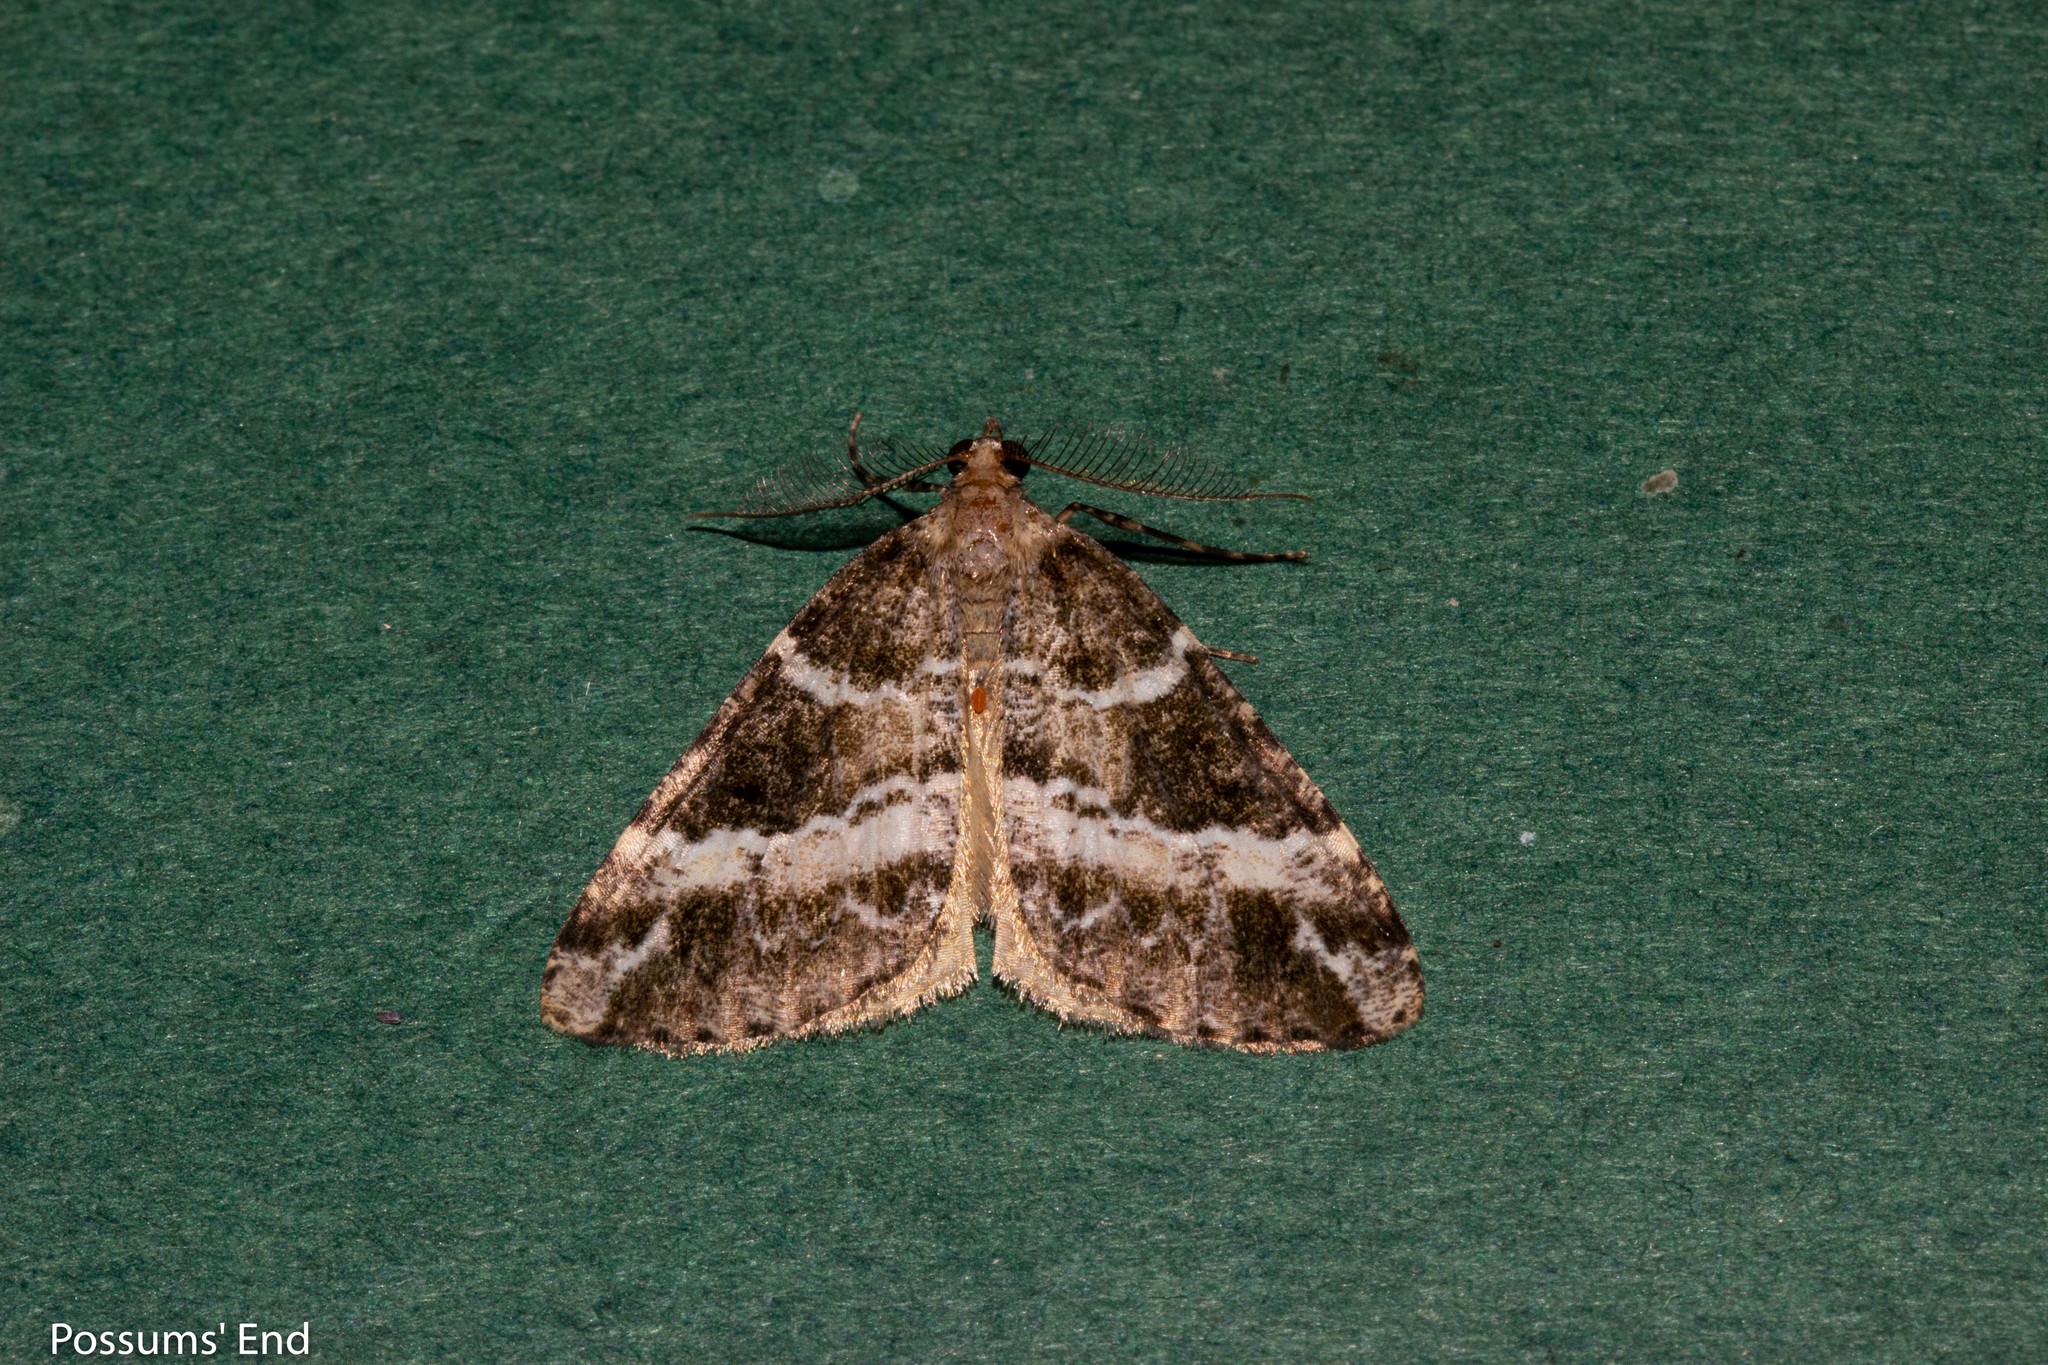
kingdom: Animalia
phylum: Arthropoda
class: Insecta
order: Lepidoptera
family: Geometridae
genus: Pseudocoremia
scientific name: Pseudocoremia
